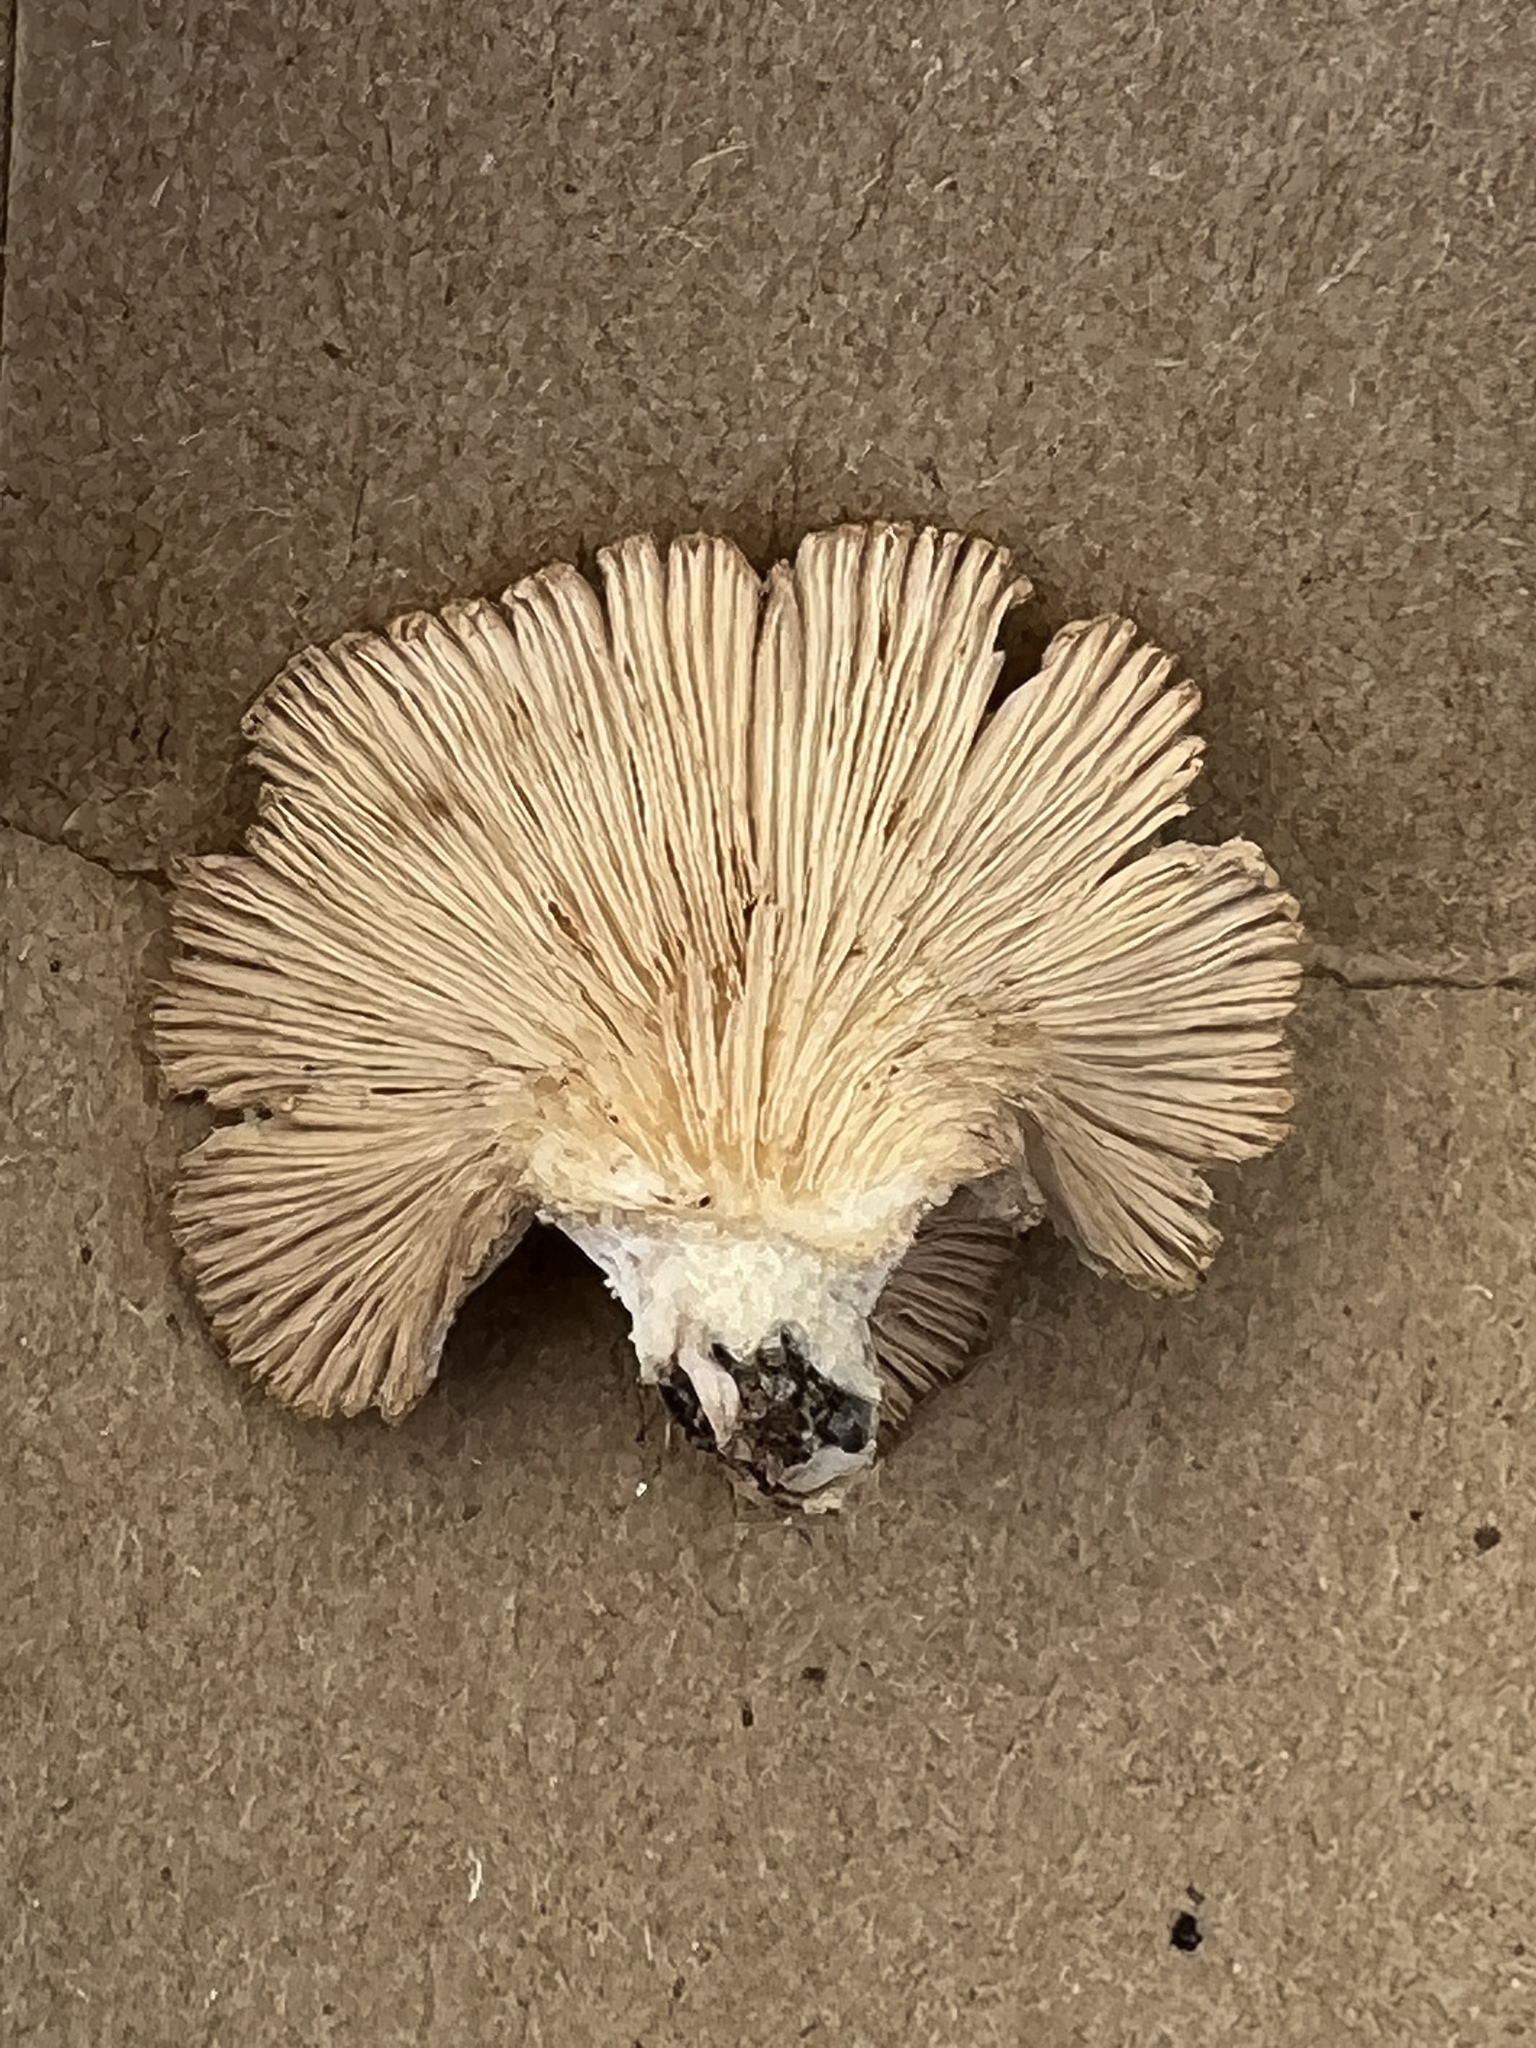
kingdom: Fungi
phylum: Basidiomycota
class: Agaricomycetes
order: Agaricales
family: Schizophyllaceae
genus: Schizophyllum
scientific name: Schizophyllum commune
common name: Common porecrust
